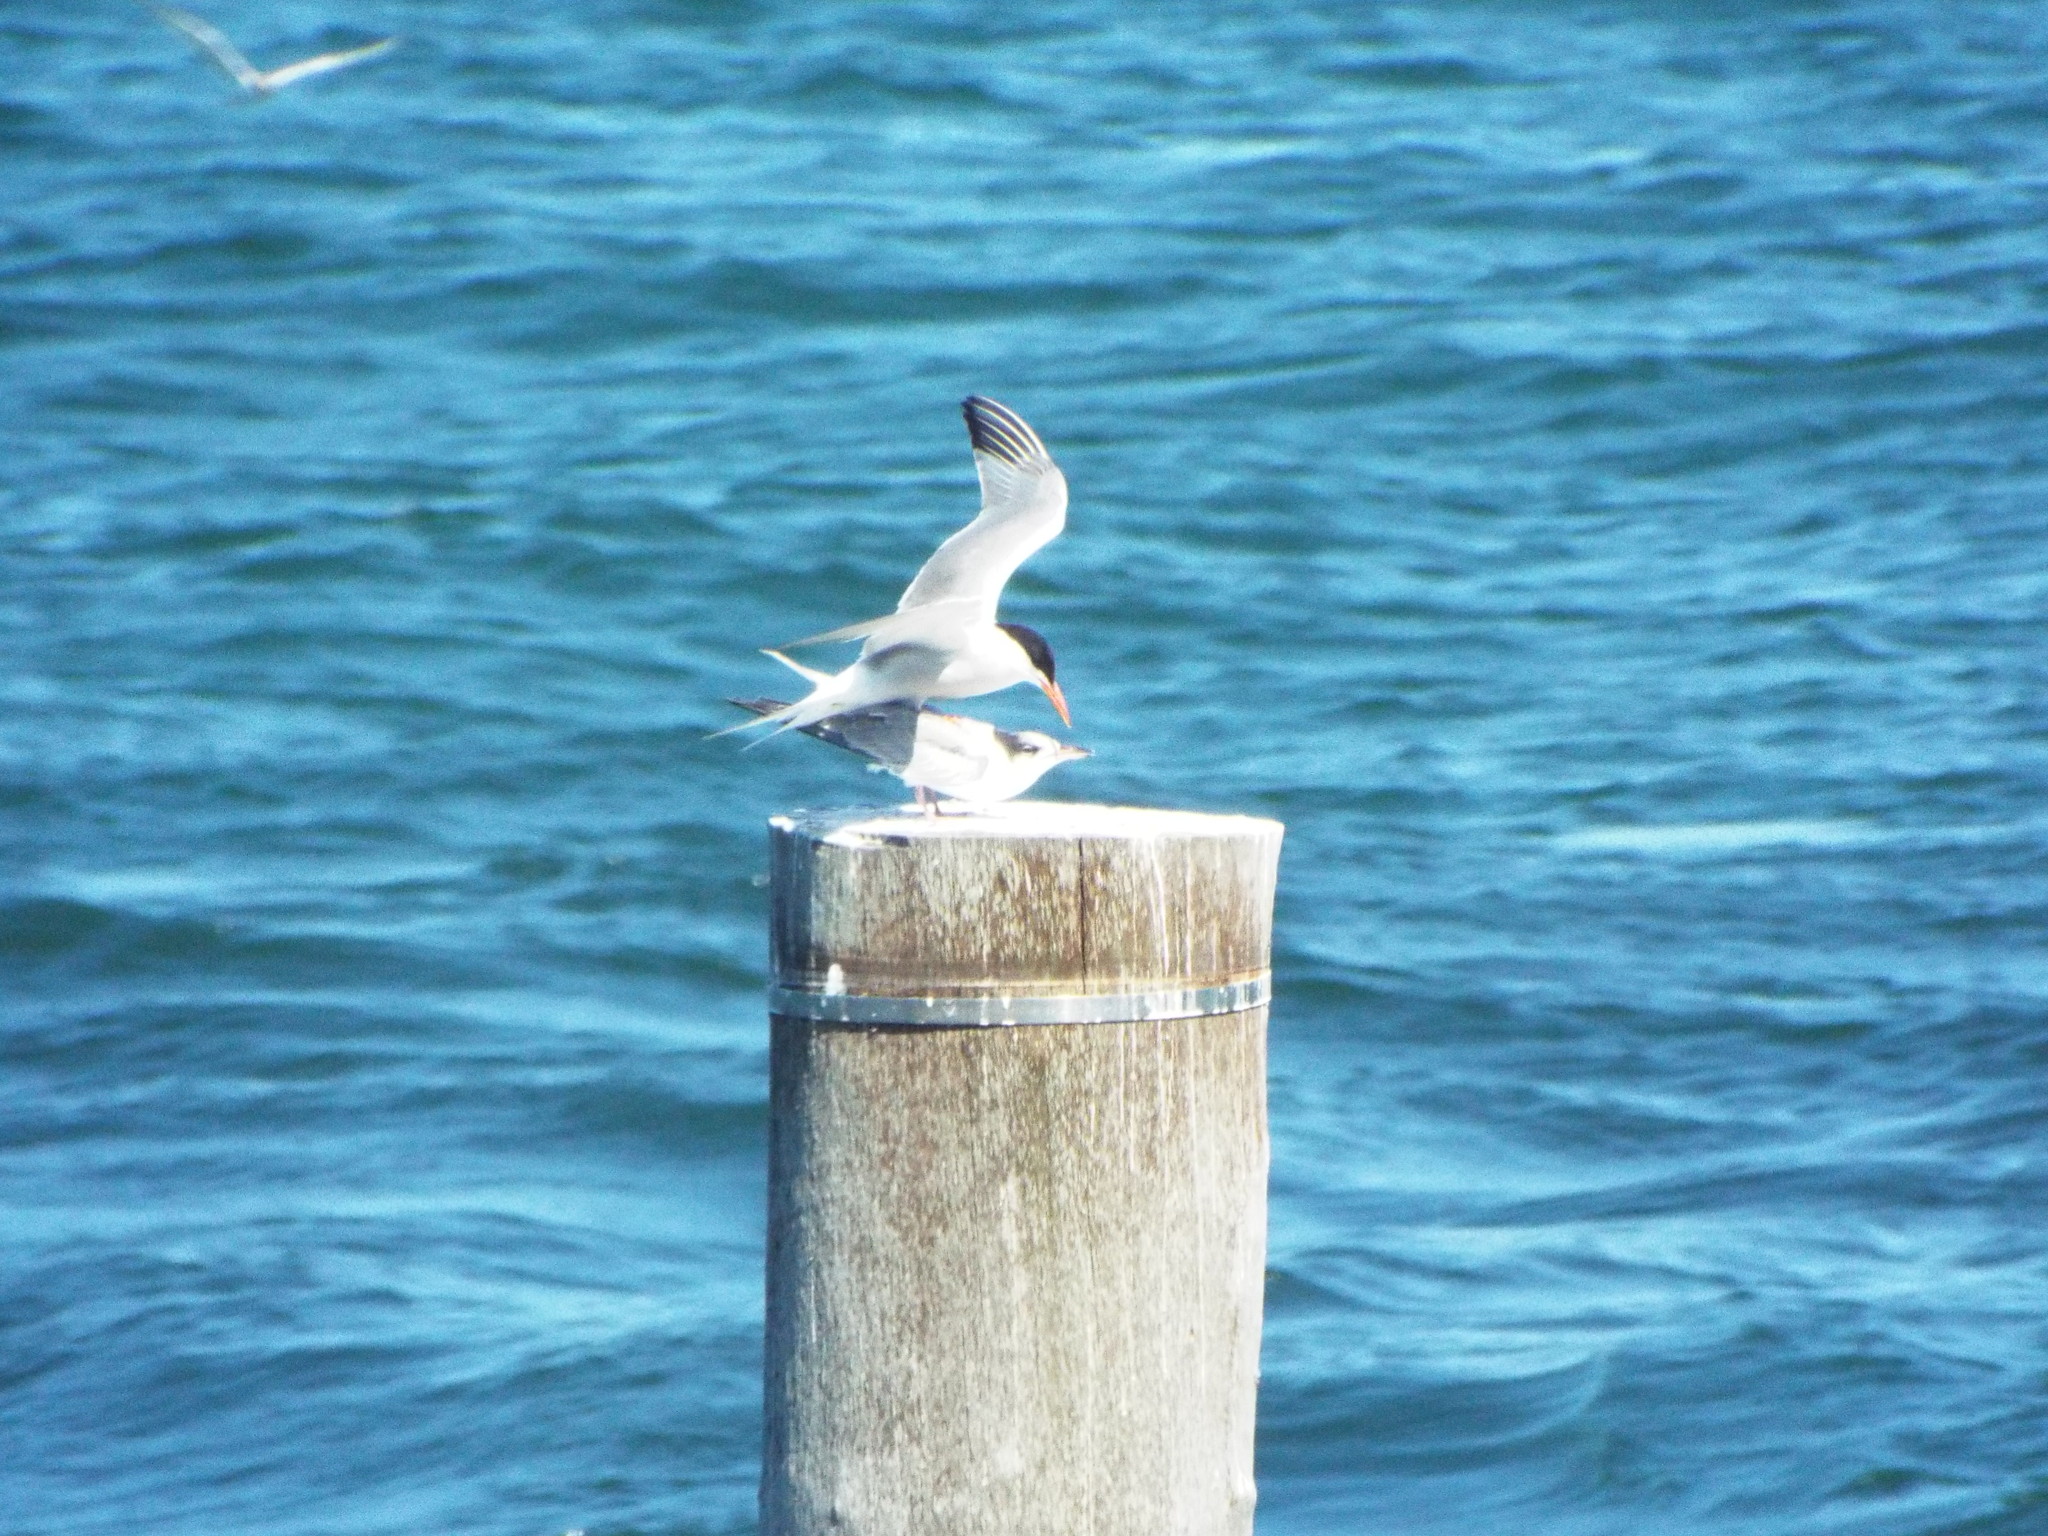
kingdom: Animalia
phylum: Chordata
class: Aves
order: Charadriiformes
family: Laridae
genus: Sterna
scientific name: Sterna hirundo
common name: Common tern
